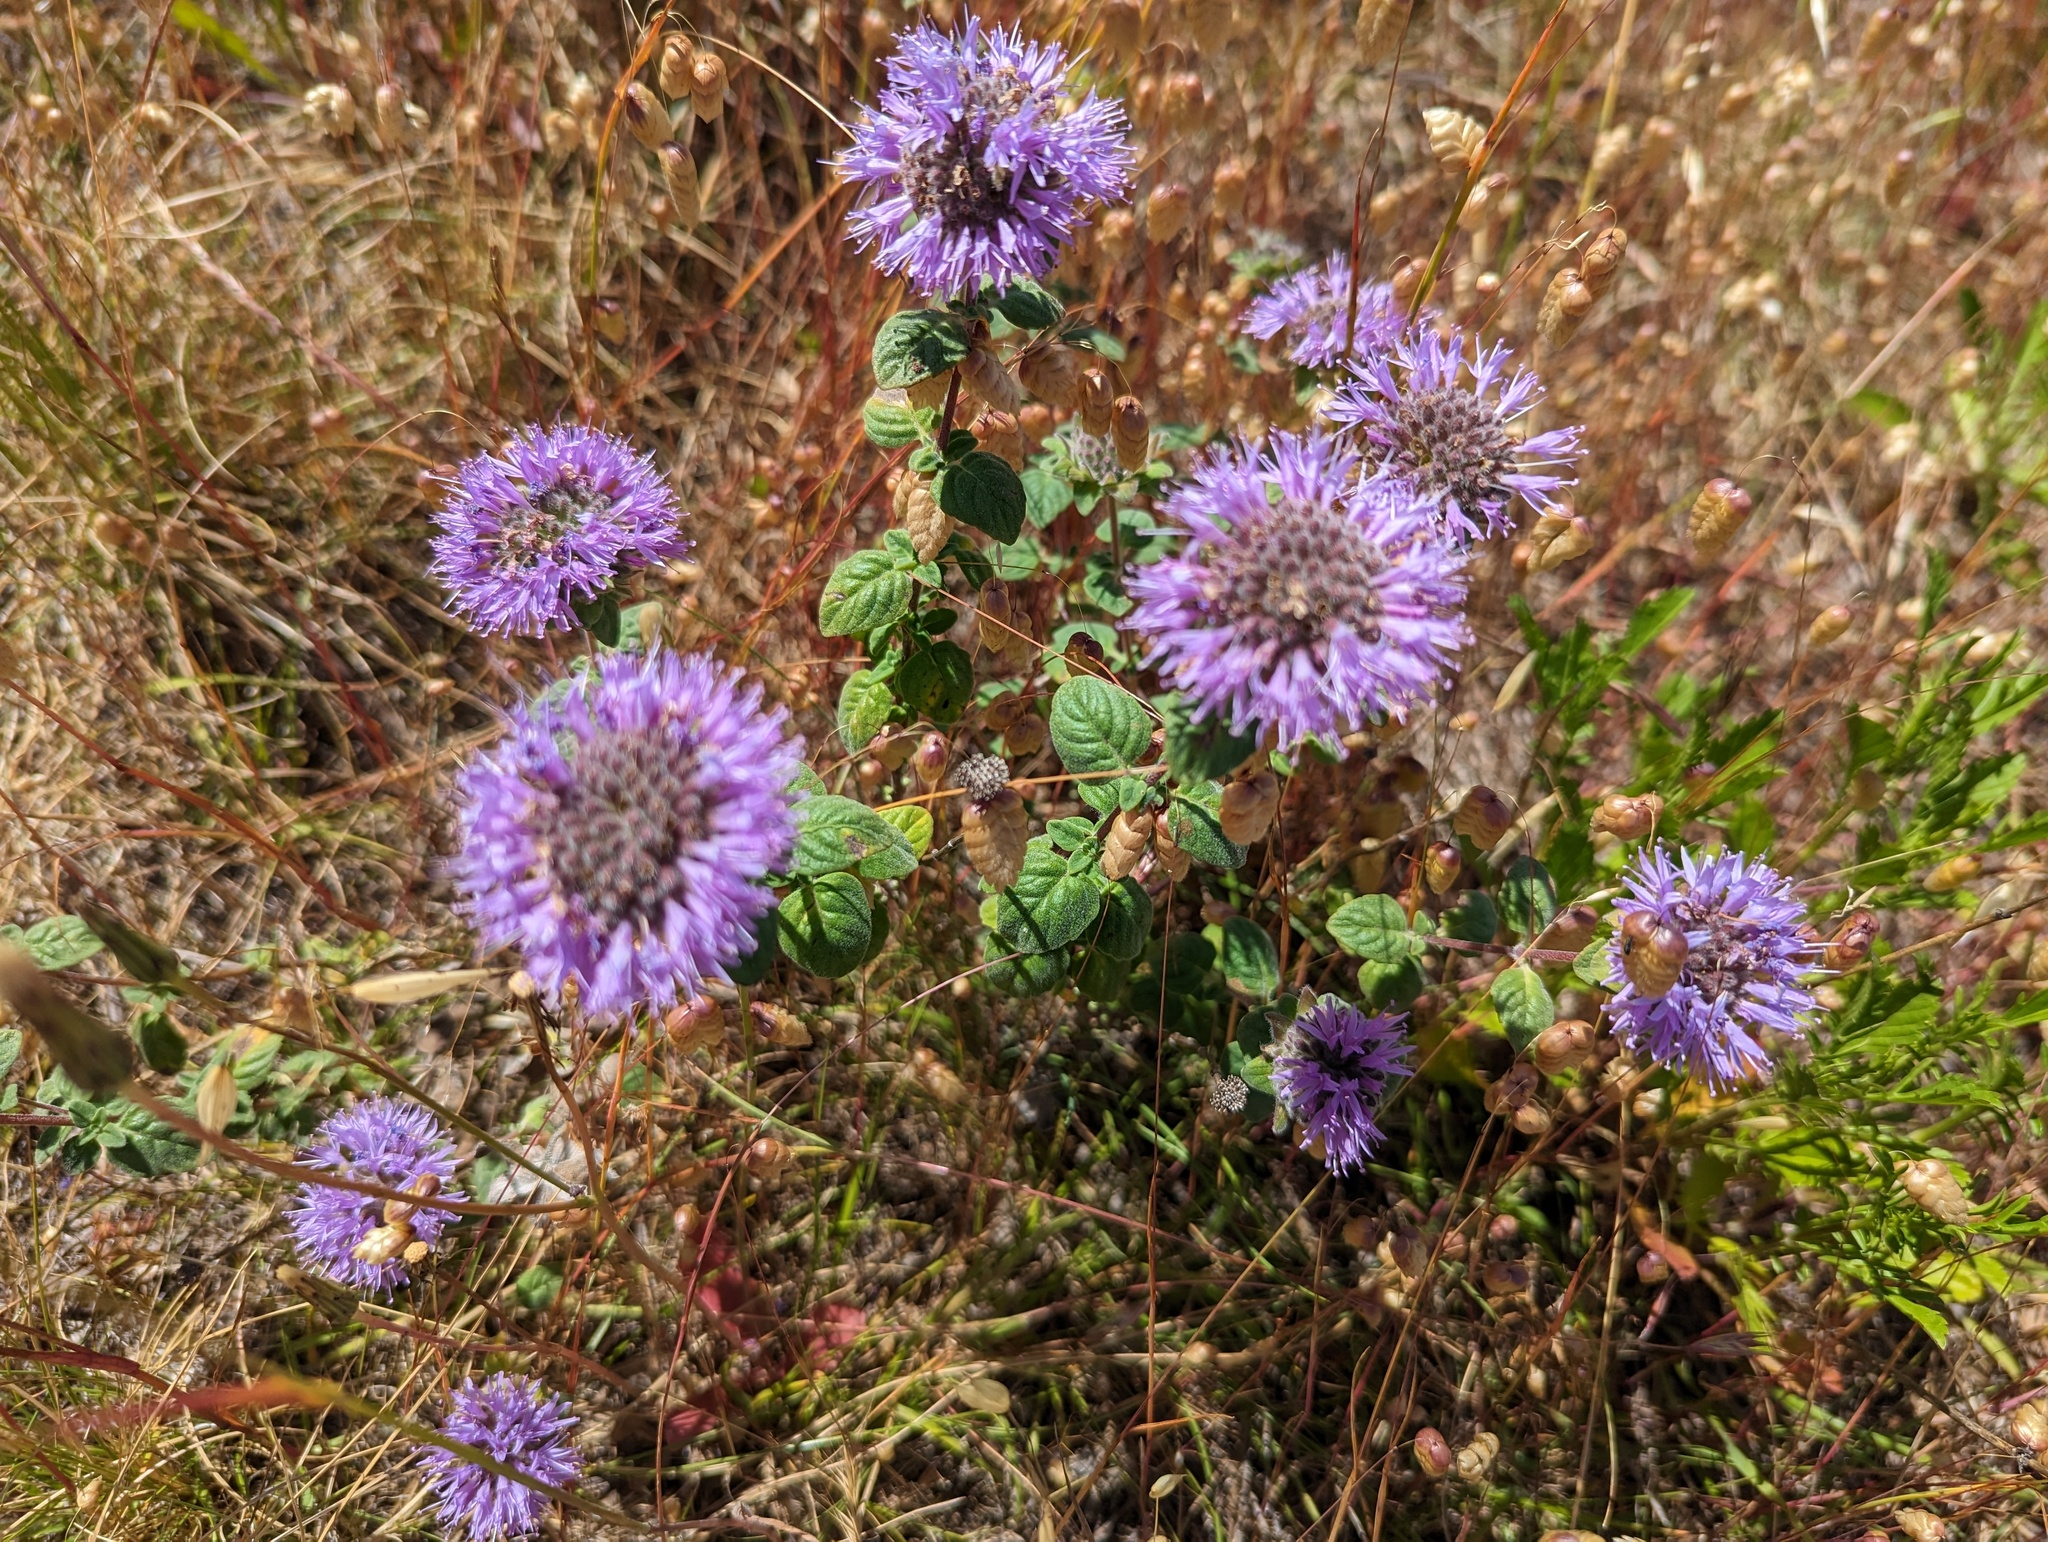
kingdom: Plantae
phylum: Tracheophyta
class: Magnoliopsida
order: Lamiales
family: Lamiaceae
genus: Monardella
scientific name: Monardella odoratissima
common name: Pacific monardella
